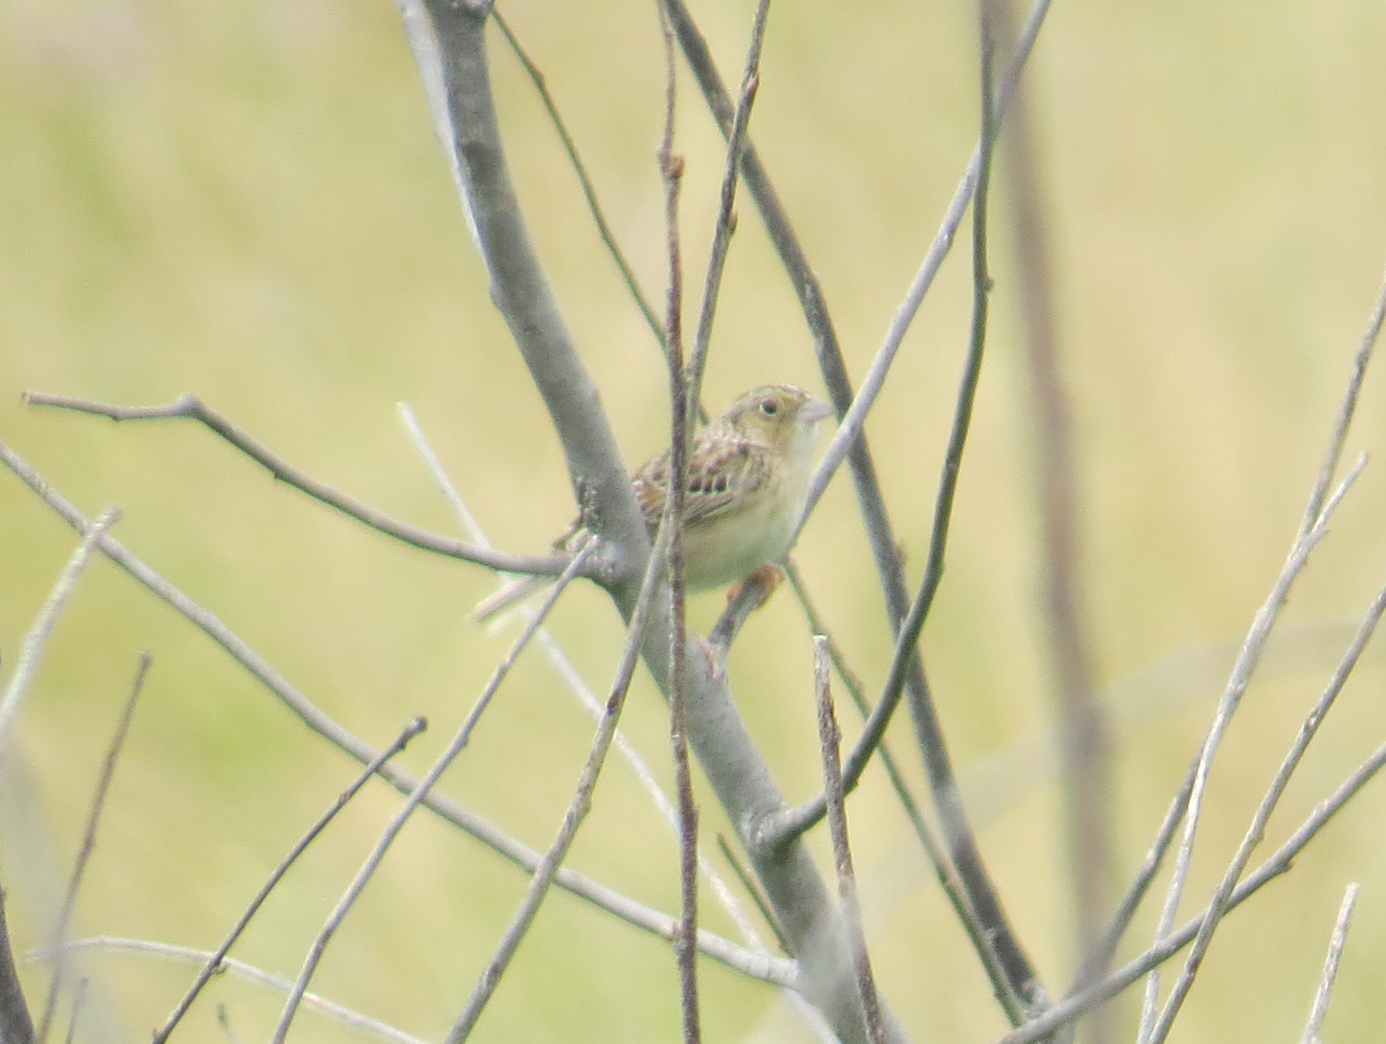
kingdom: Animalia
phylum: Chordata
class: Aves
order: Passeriformes
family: Passerellidae
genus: Ammodramus
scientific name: Ammodramus savannarum
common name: Grasshopper sparrow
